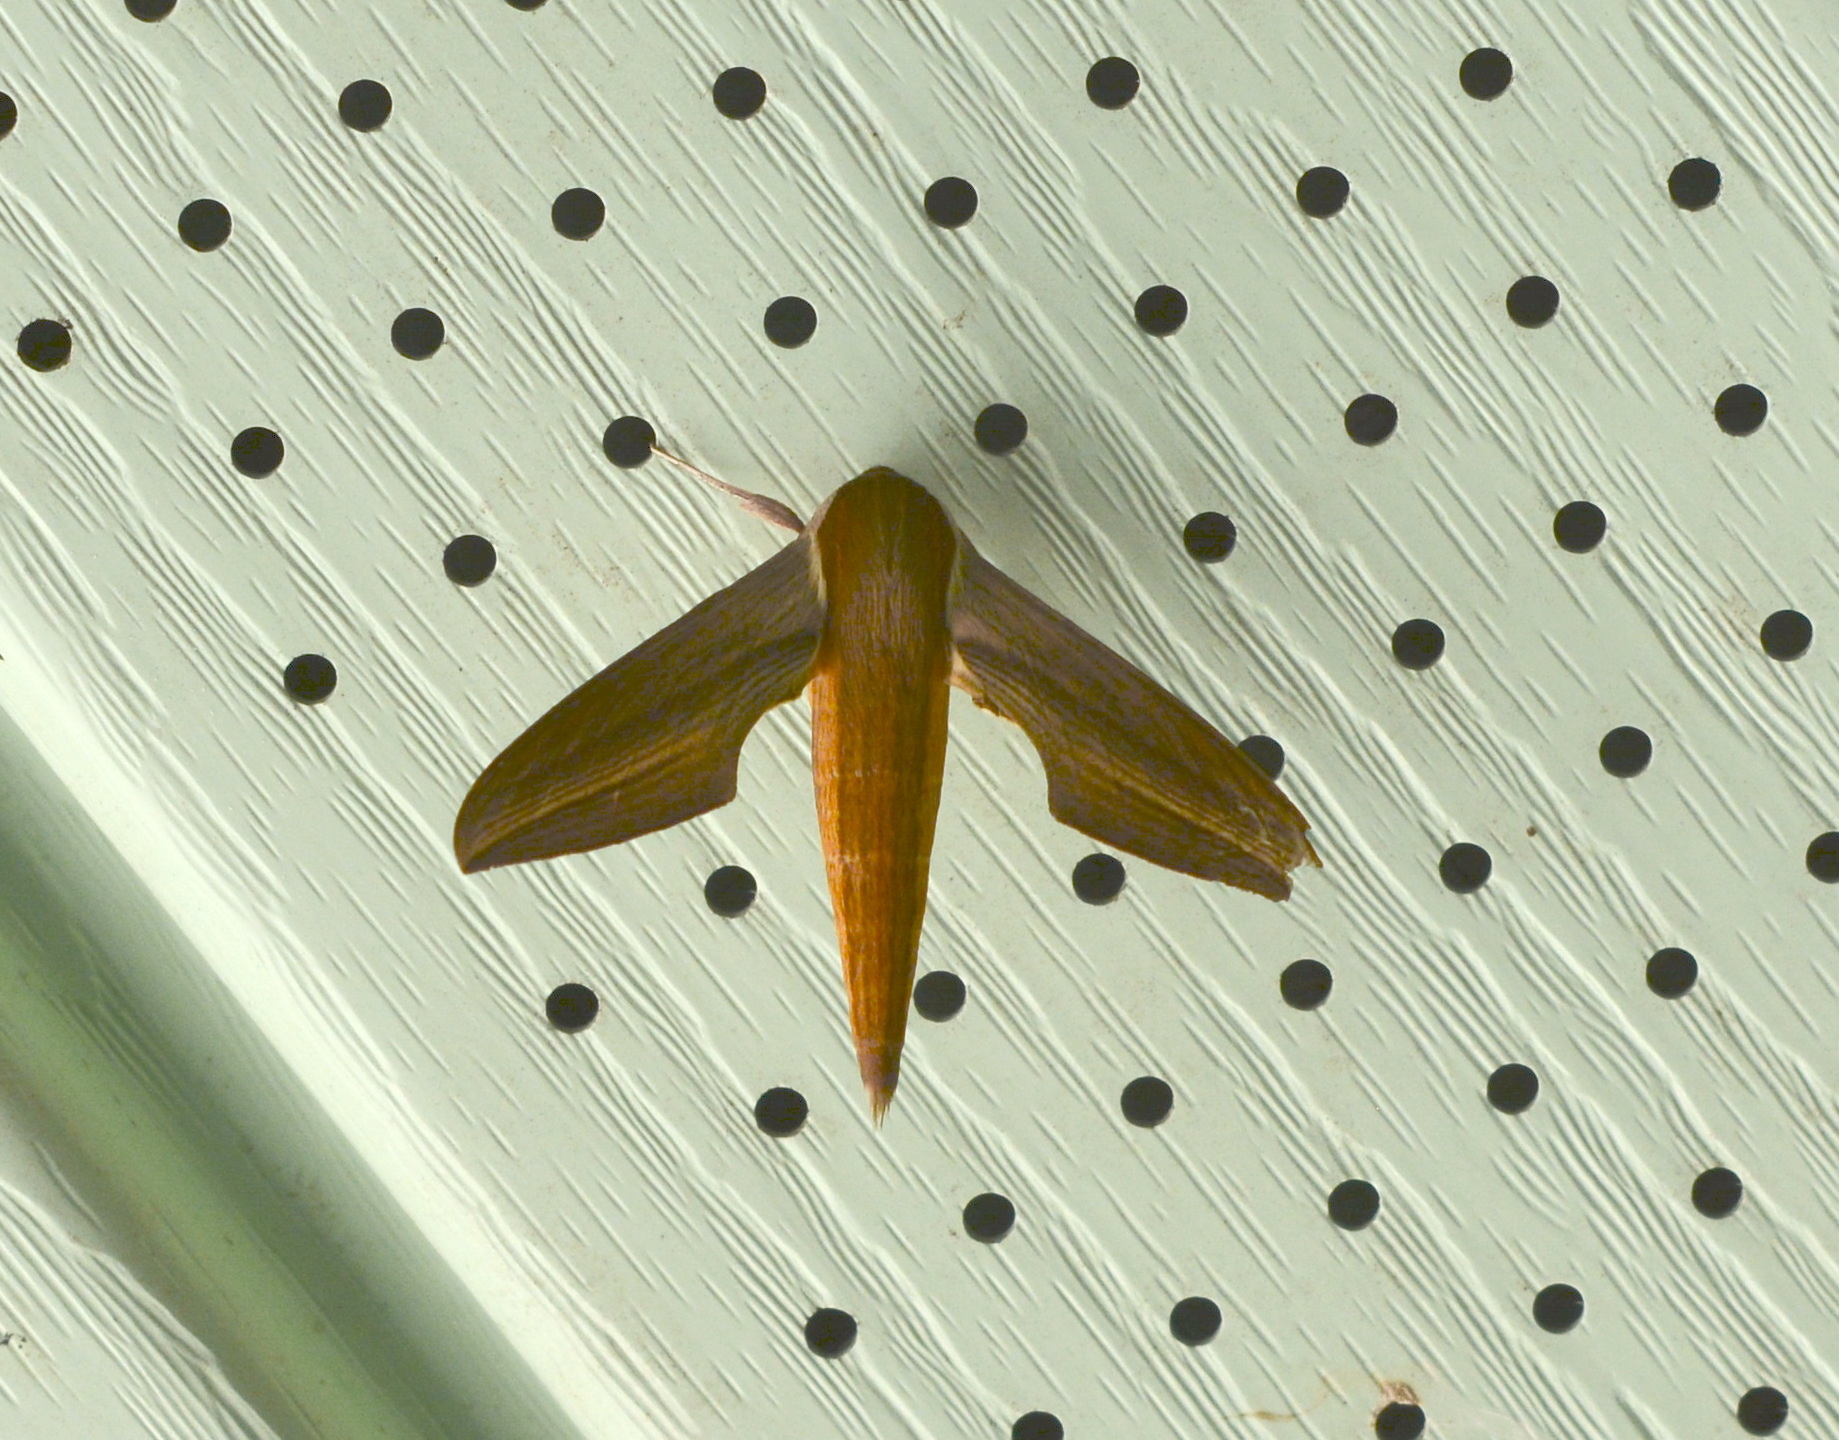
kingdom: Animalia
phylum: Arthropoda
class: Insecta
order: Lepidoptera
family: Sphingidae
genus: Xylophanes
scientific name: Xylophanes tersa
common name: Tersa sphinx
